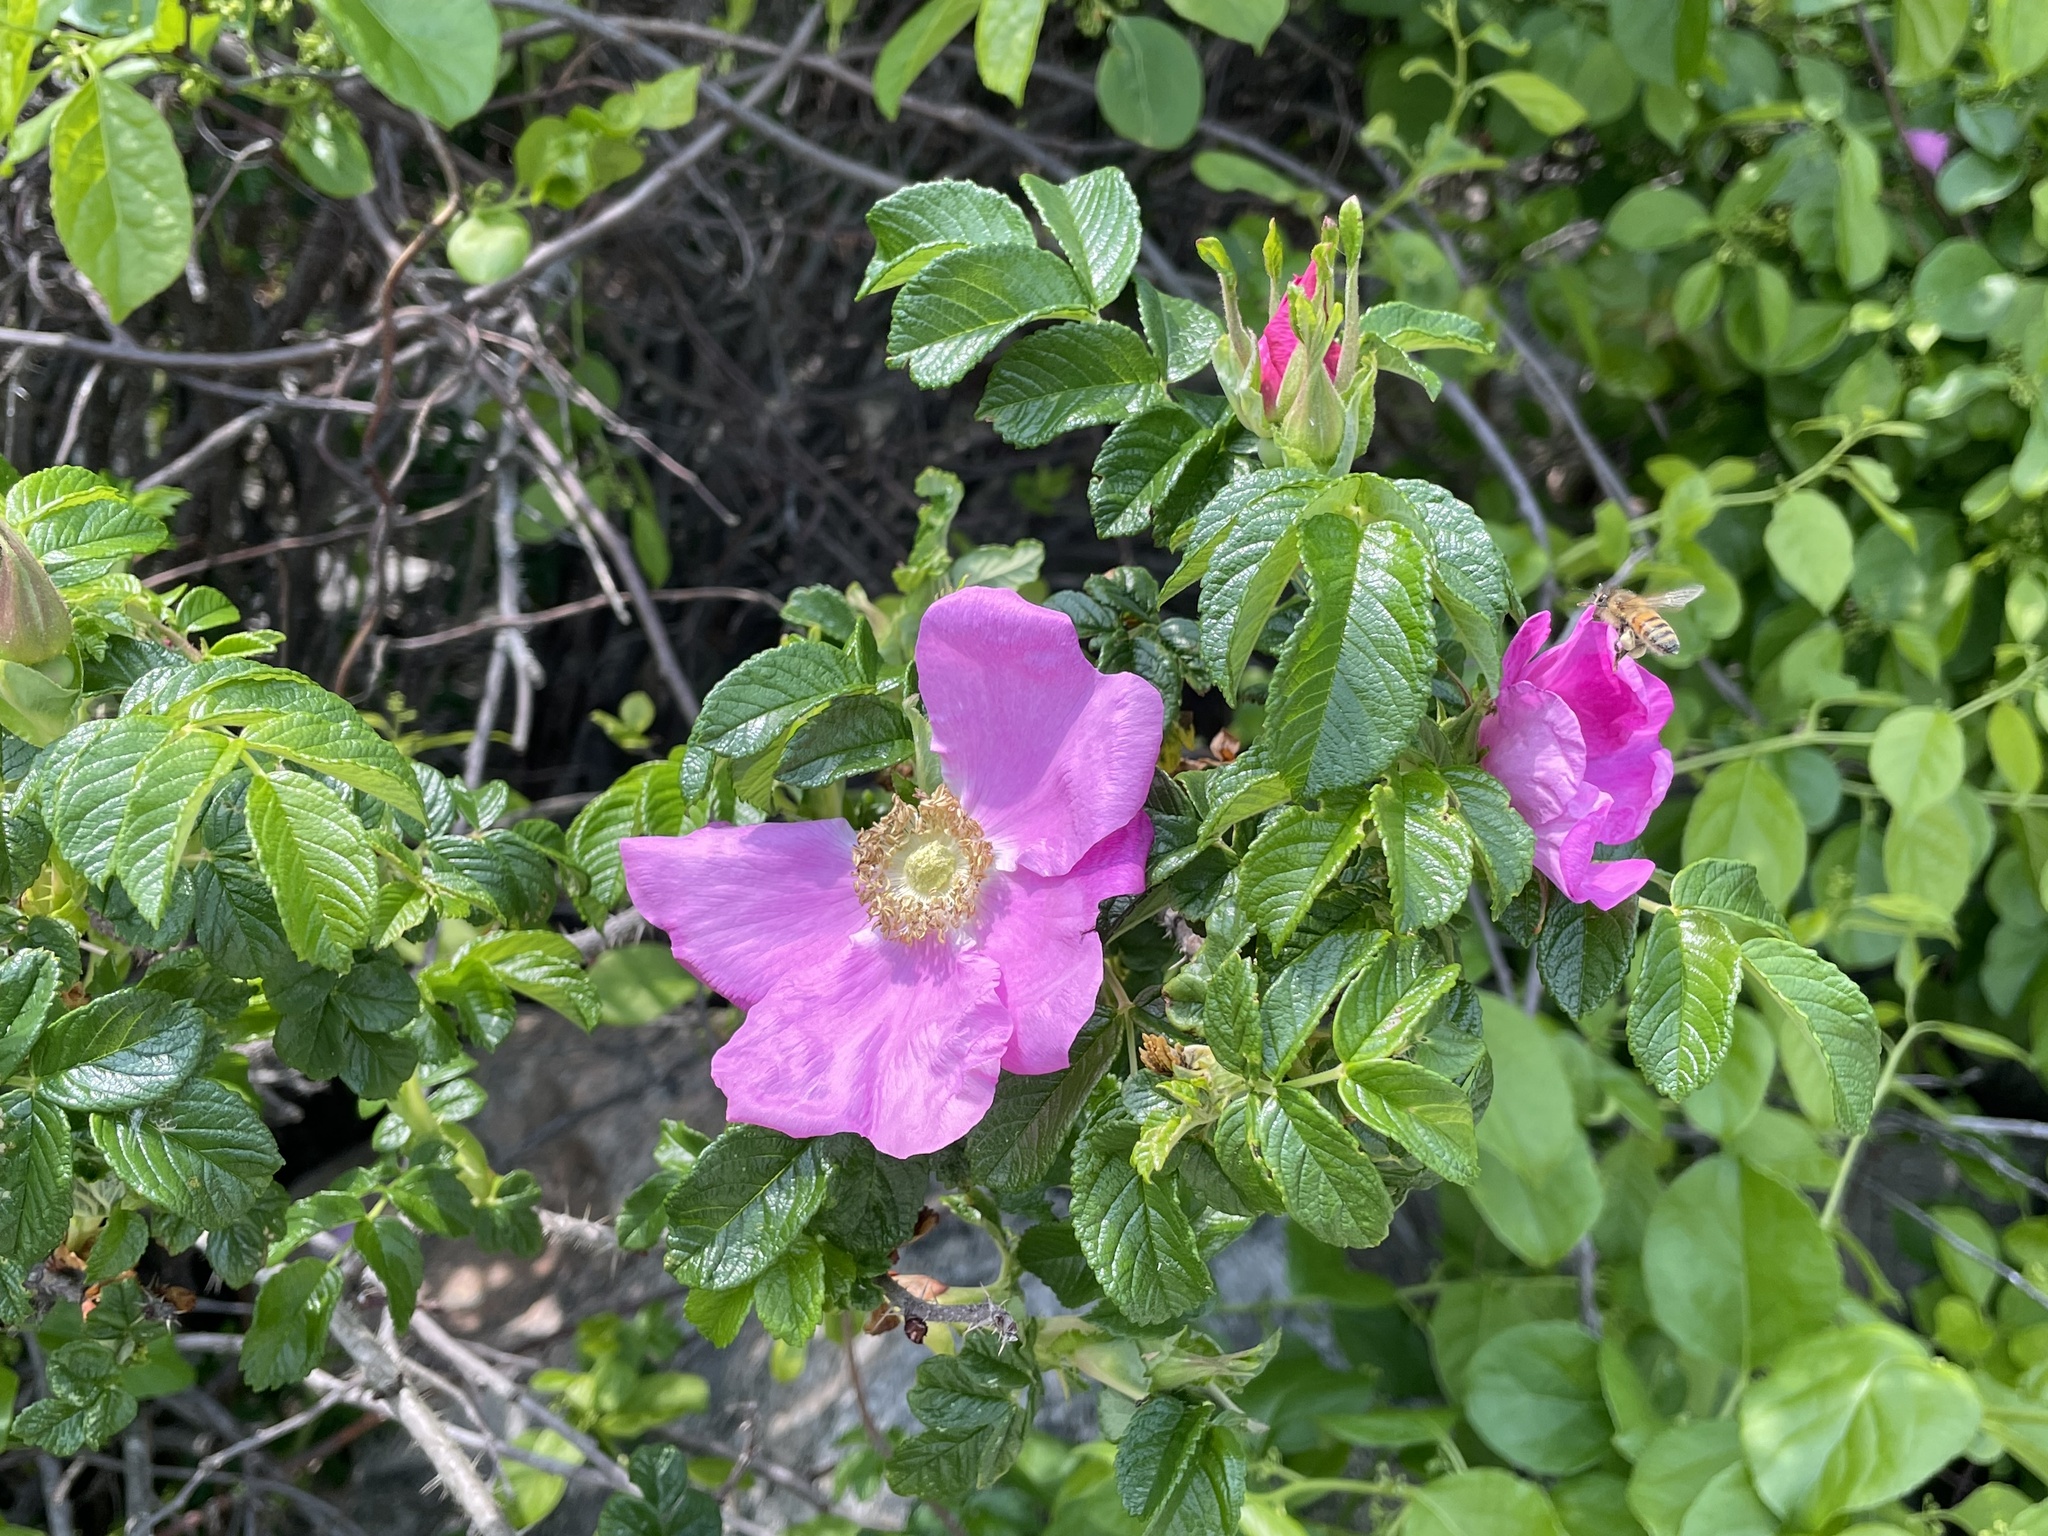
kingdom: Plantae
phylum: Tracheophyta
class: Magnoliopsida
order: Rosales
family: Rosaceae
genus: Rosa
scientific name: Rosa rugosa
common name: Japanese rose
